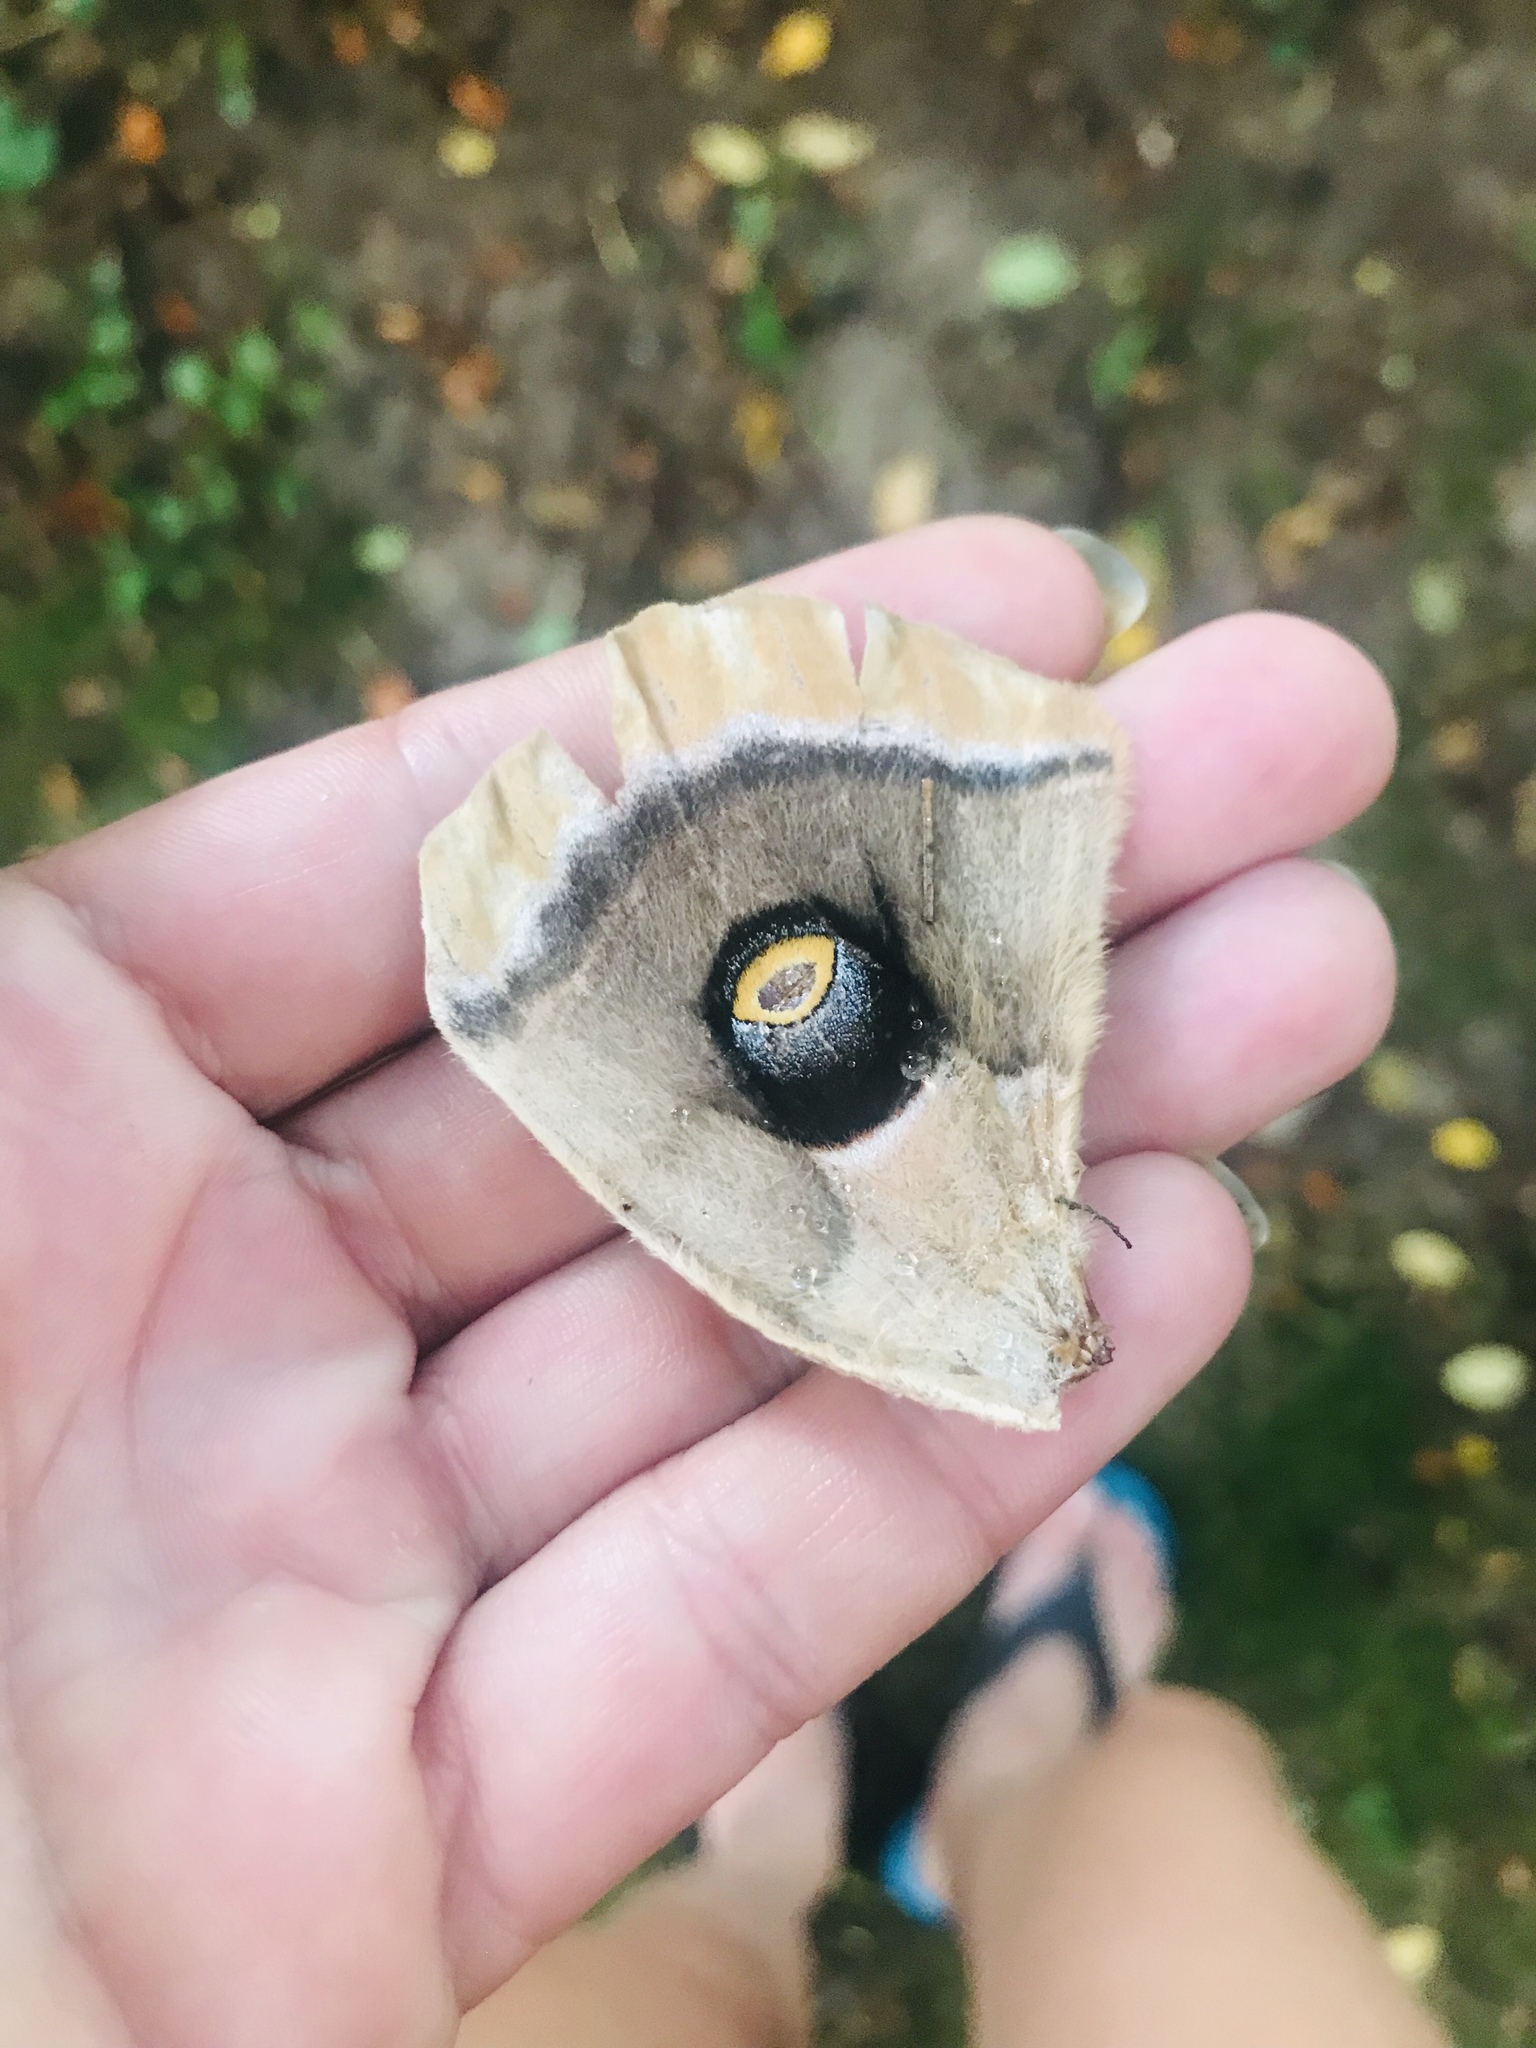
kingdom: Animalia
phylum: Arthropoda
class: Insecta
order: Lepidoptera
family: Saturniidae
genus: Antheraea
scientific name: Antheraea polyphemus
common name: Polyphemus moth
